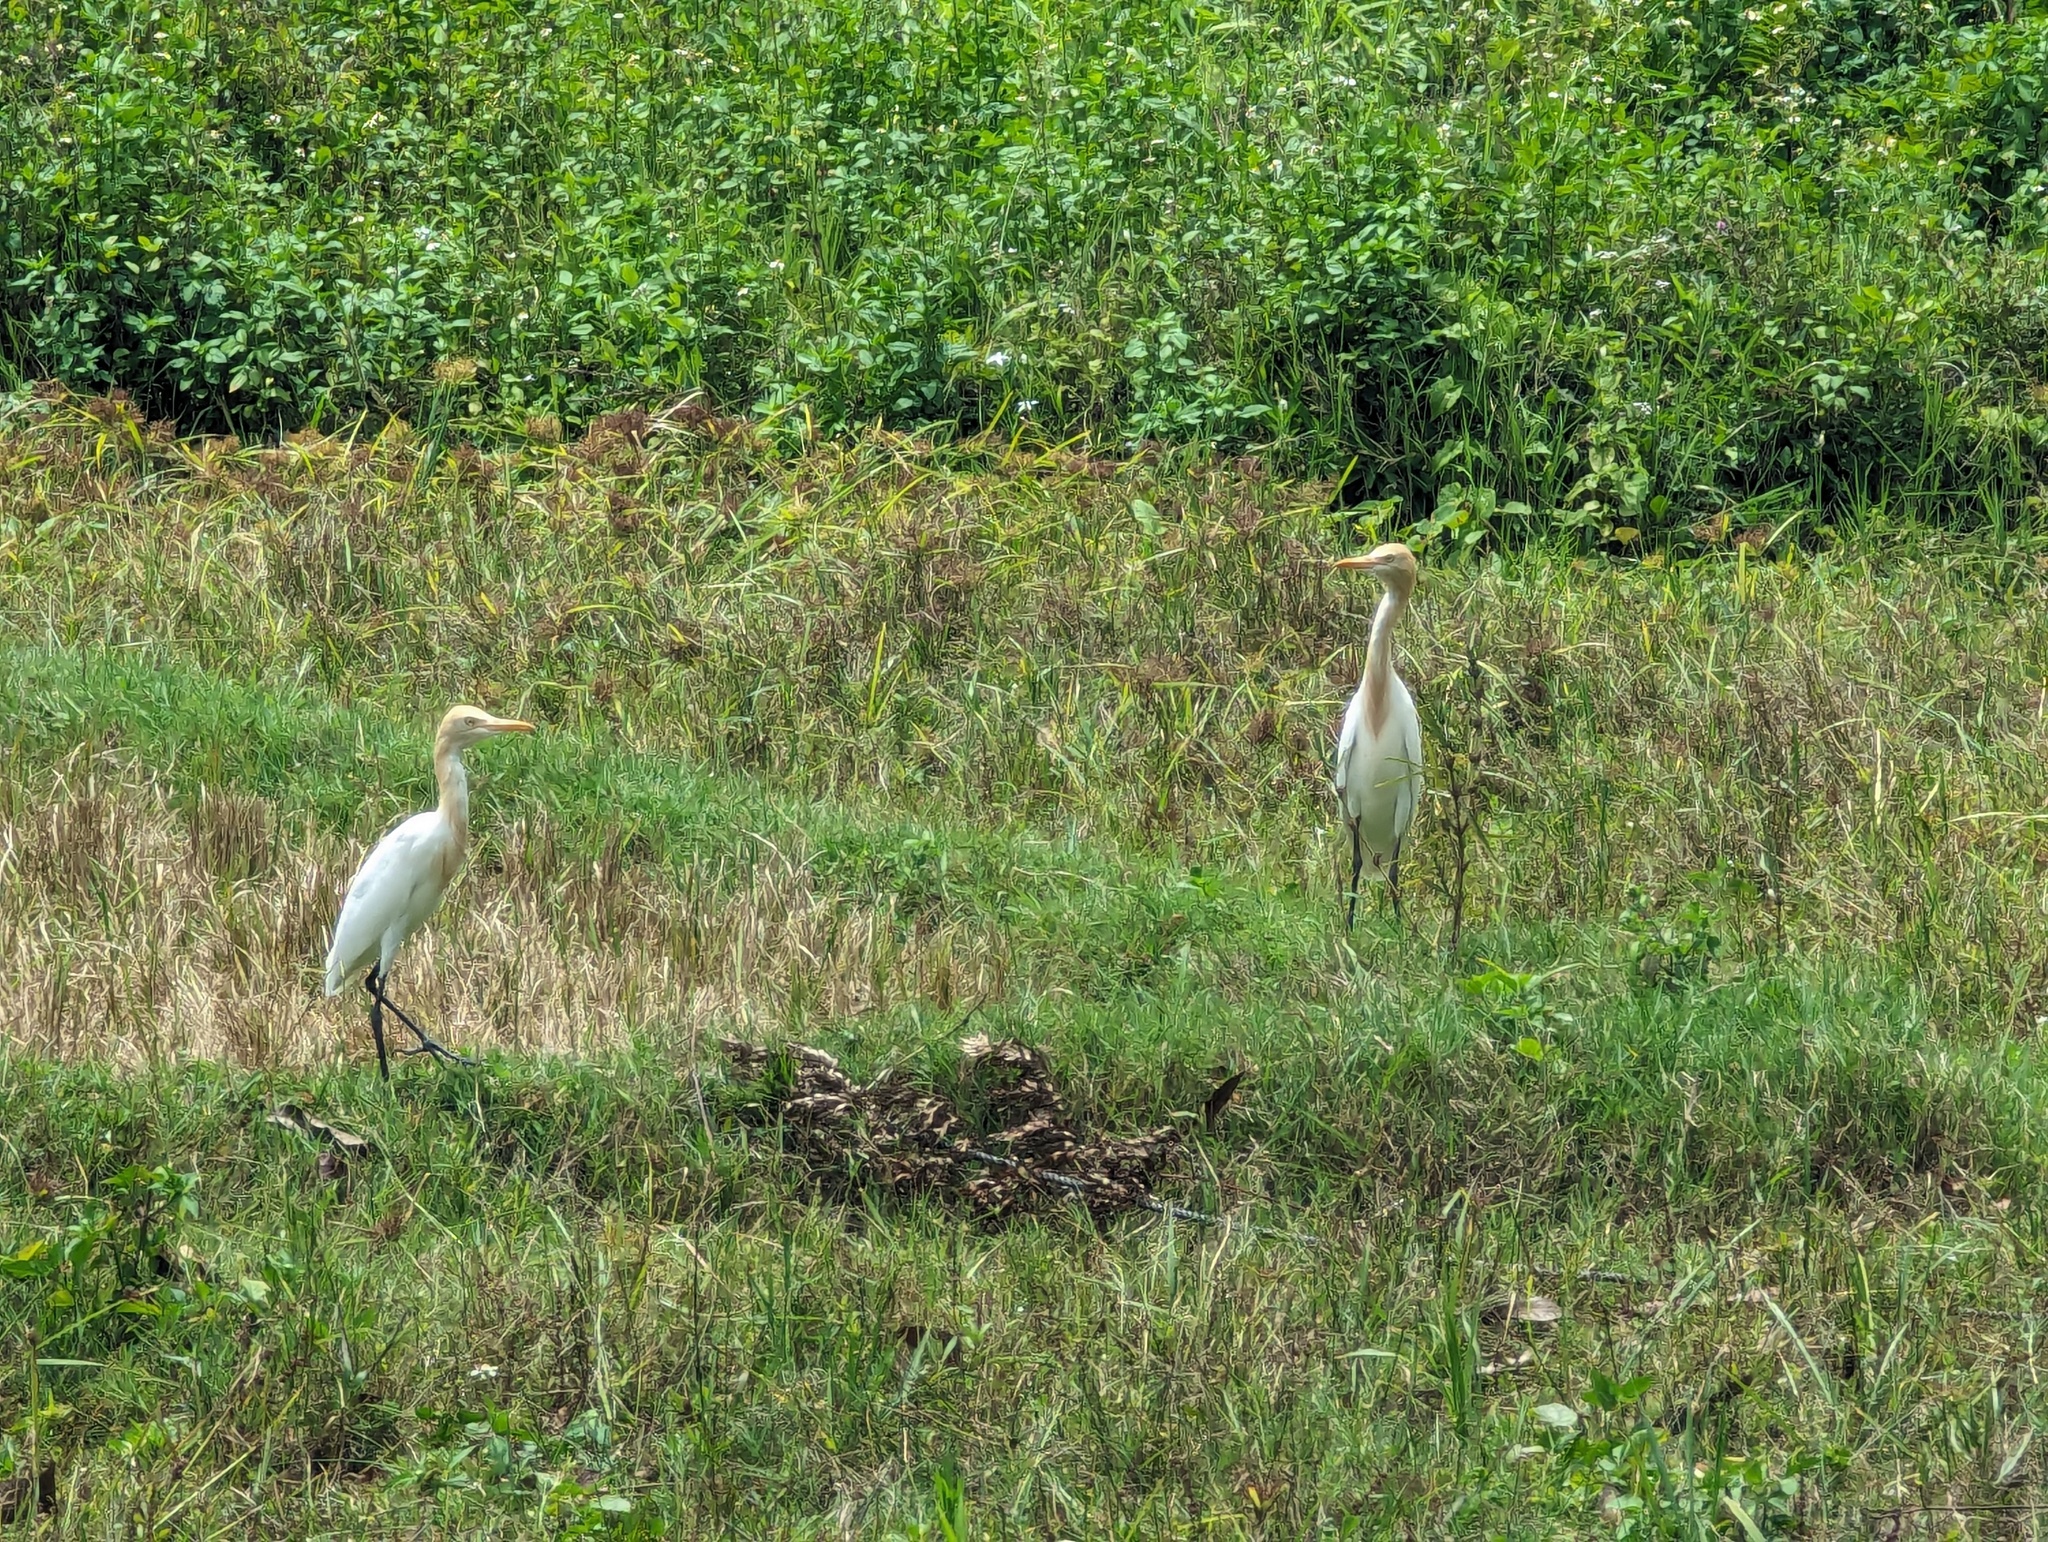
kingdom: Animalia
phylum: Chordata
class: Aves
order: Pelecaniformes
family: Ardeidae
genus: Bubulcus
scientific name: Bubulcus coromandus
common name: Eastern cattle egret
